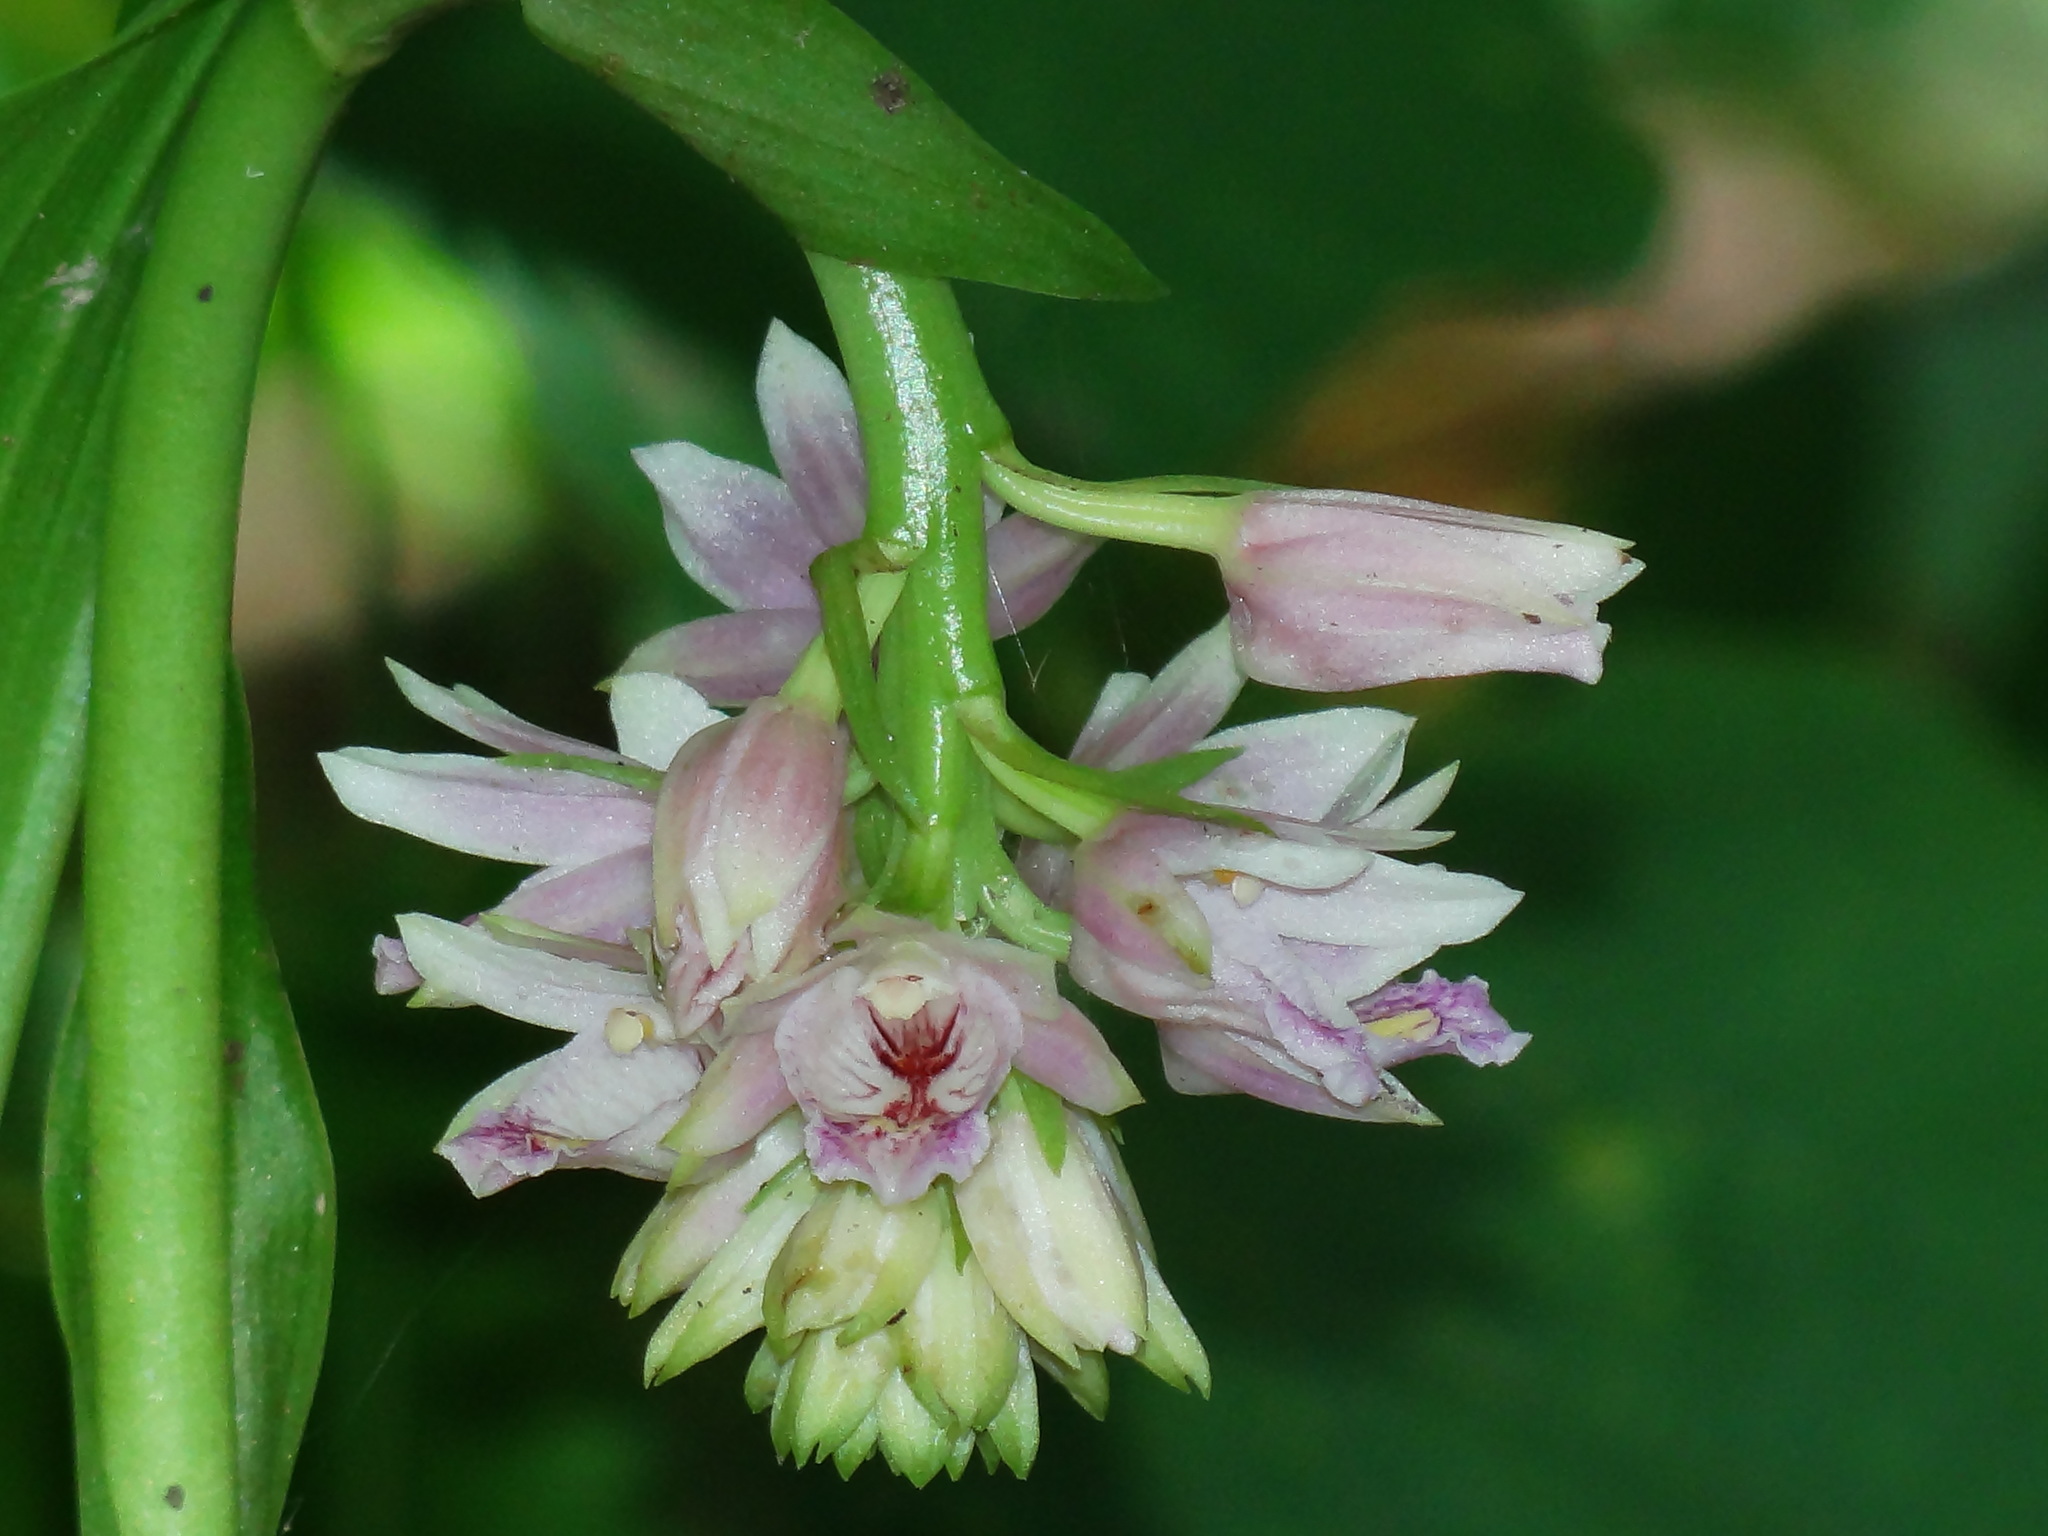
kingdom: Plantae
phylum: Tracheophyta
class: Liliopsida
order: Asparagales
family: Orchidaceae
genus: Eulophia
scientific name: Eulophia cernua
